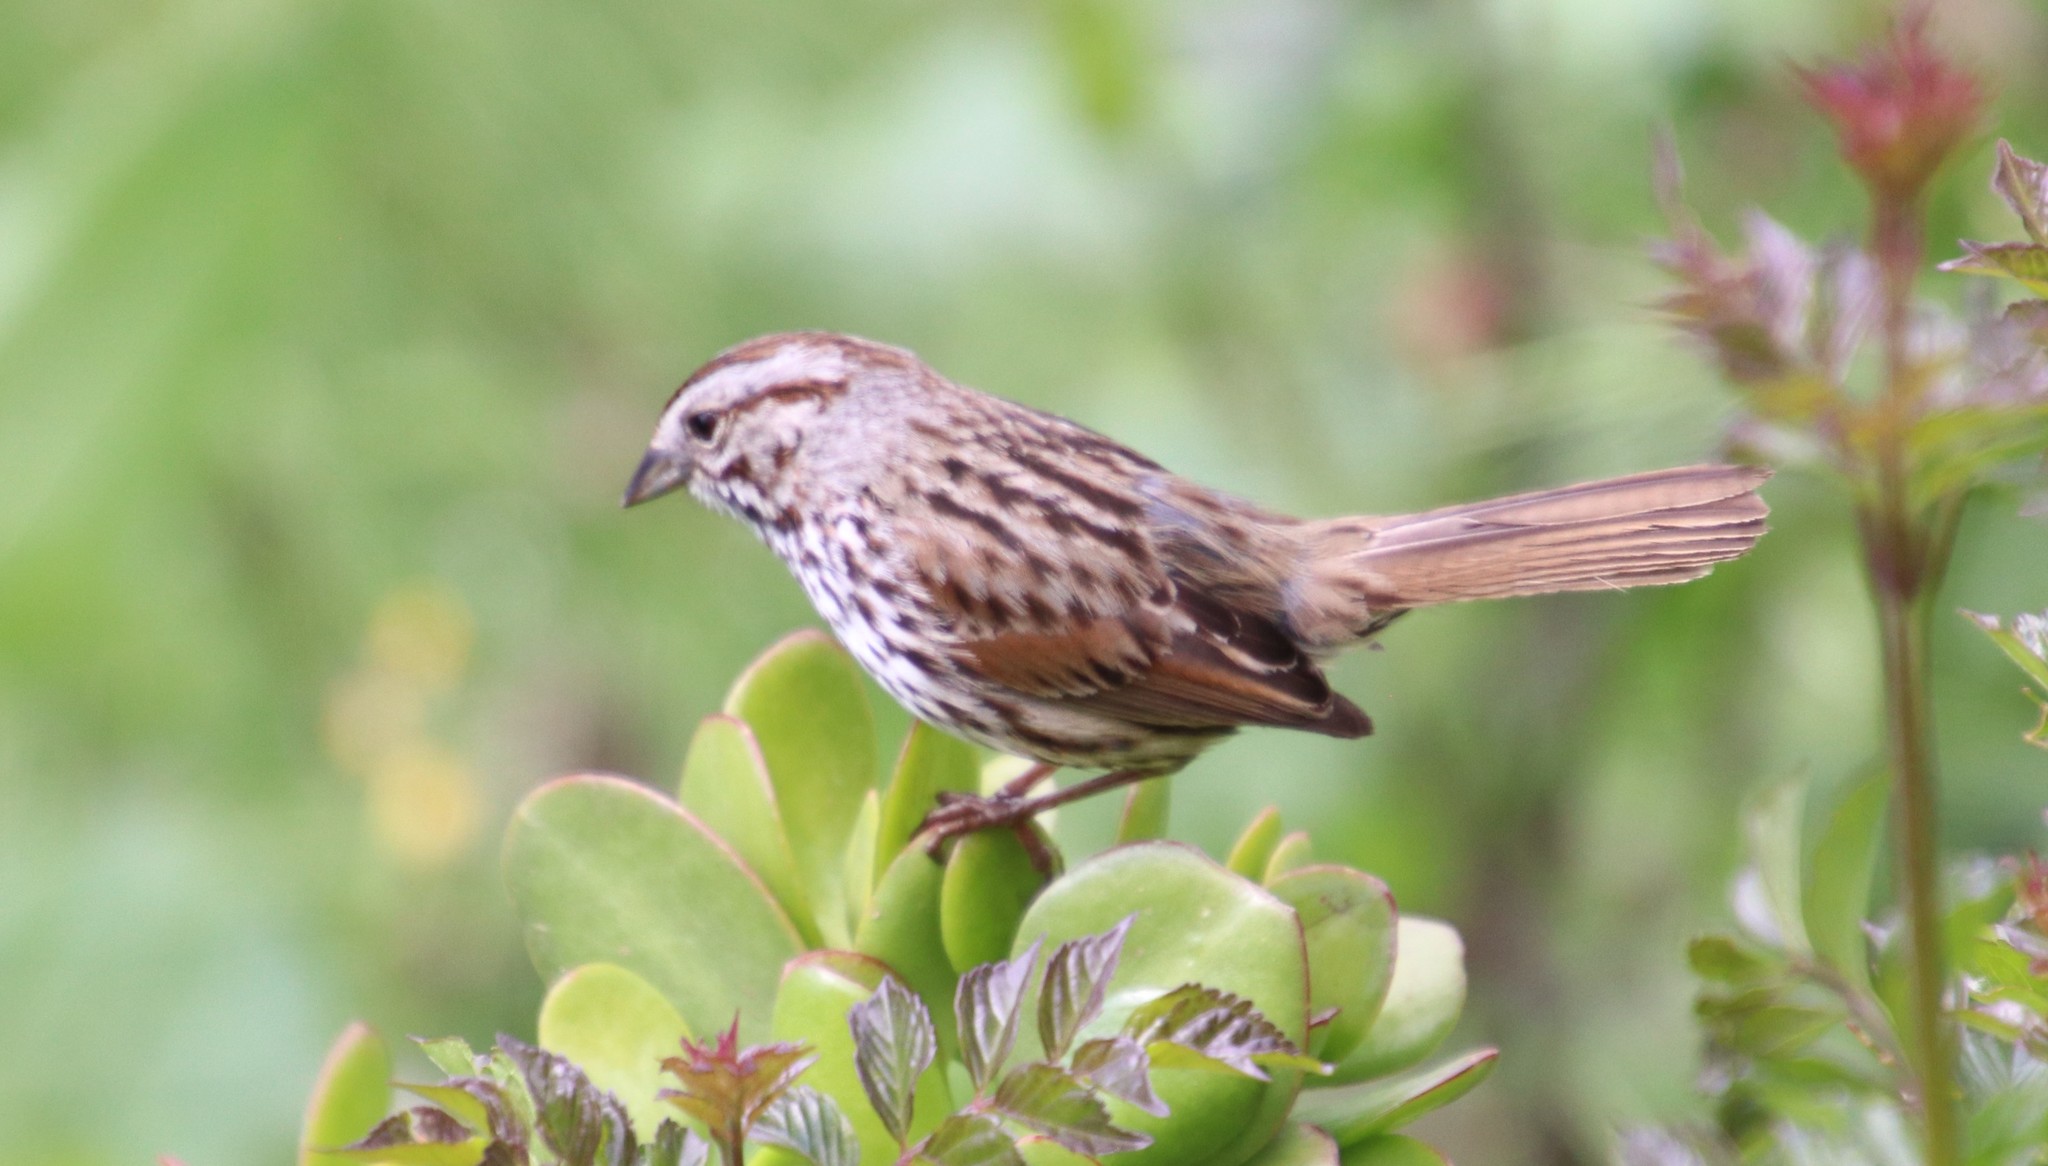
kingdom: Animalia
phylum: Chordata
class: Aves
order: Passeriformes
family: Passerellidae
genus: Melospiza
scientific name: Melospiza melodia
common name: Song sparrow
